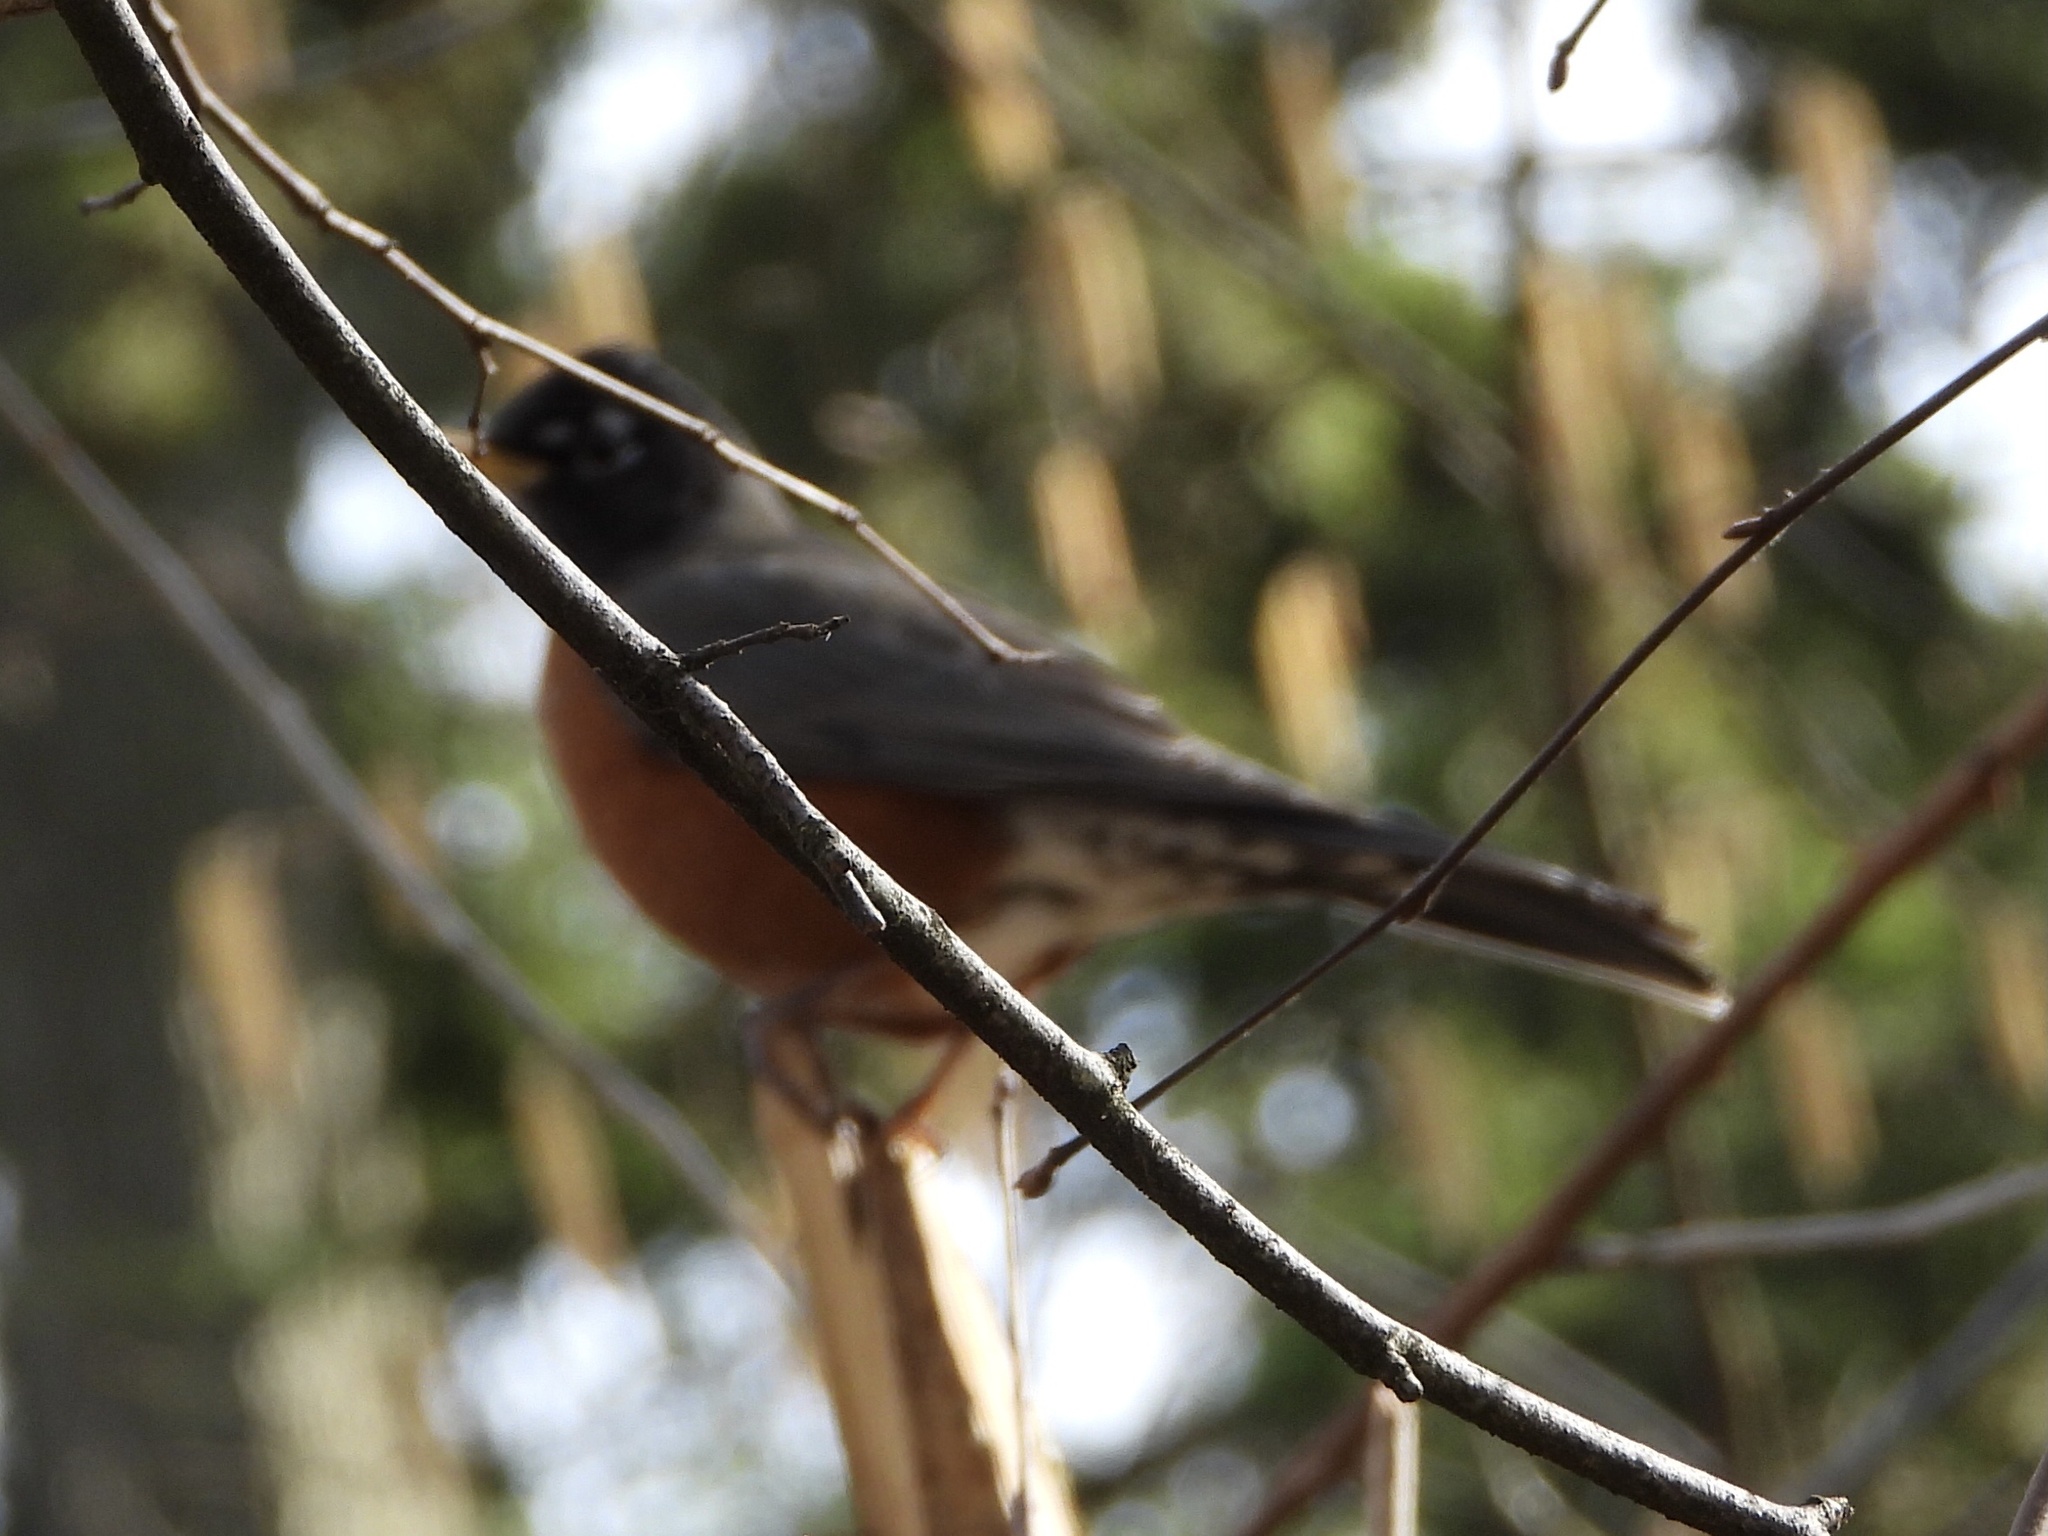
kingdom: Animalia
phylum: Chordata
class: Aves
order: Passeriformes
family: Turdidae
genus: Turdus
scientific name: Turdus migratorius
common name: American robin
